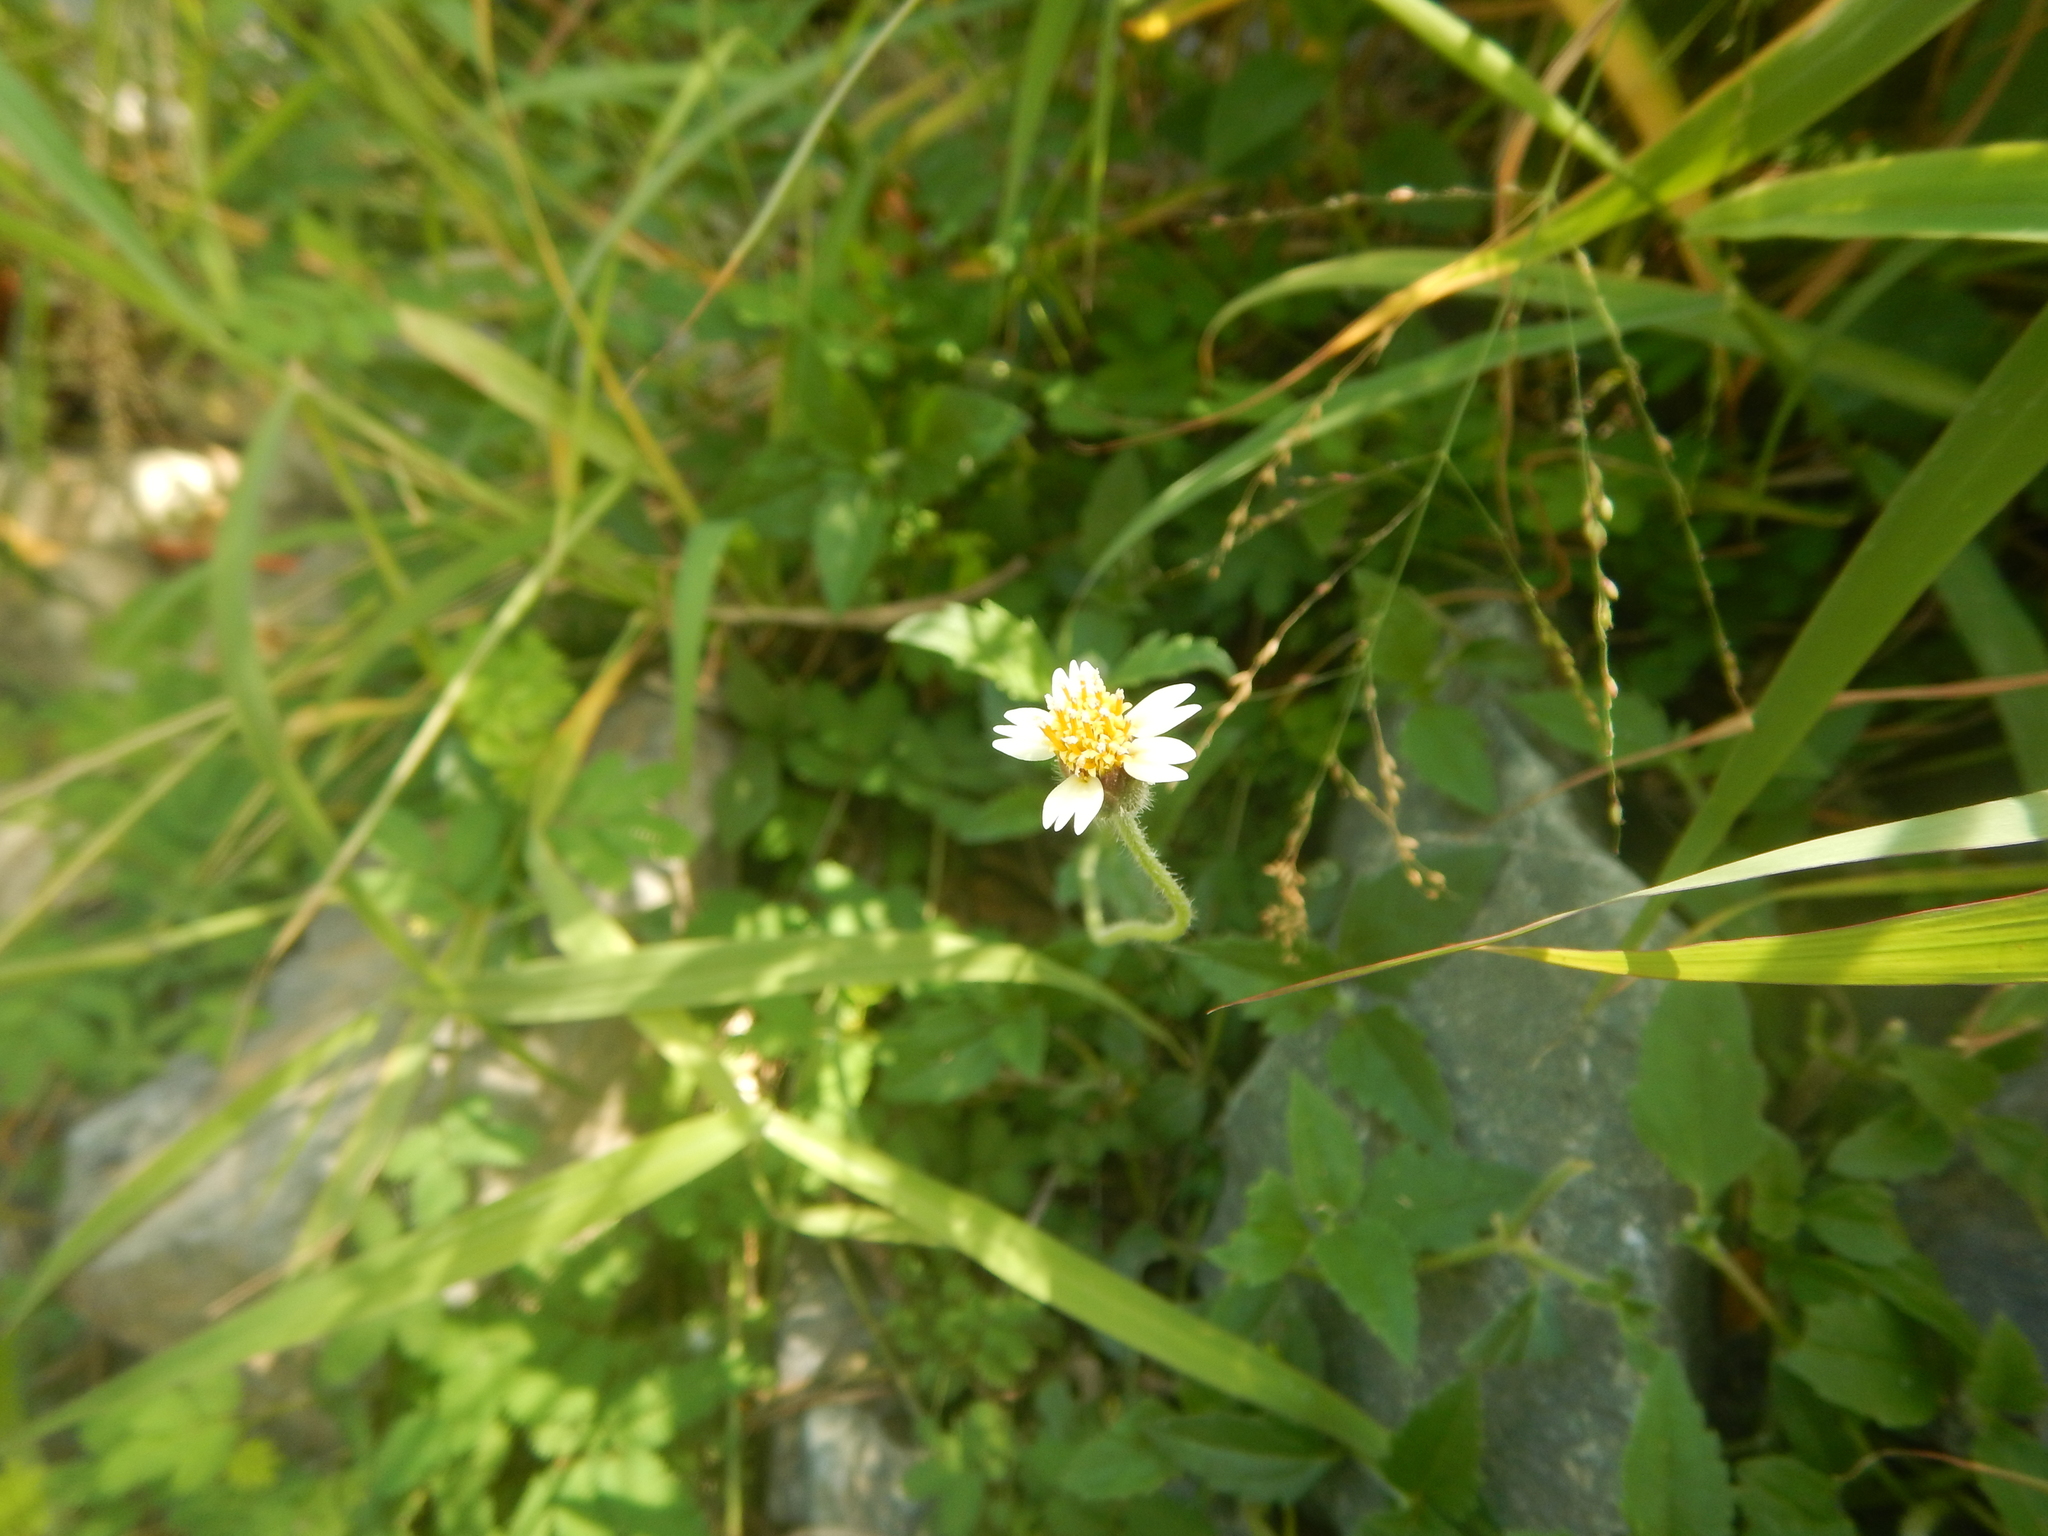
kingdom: Plantae
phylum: Tracheophyta
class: Magnoliopsida
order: Asterales
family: Asteraceae
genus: Tridax
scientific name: Tridax procumbens
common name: Coatbuttons
